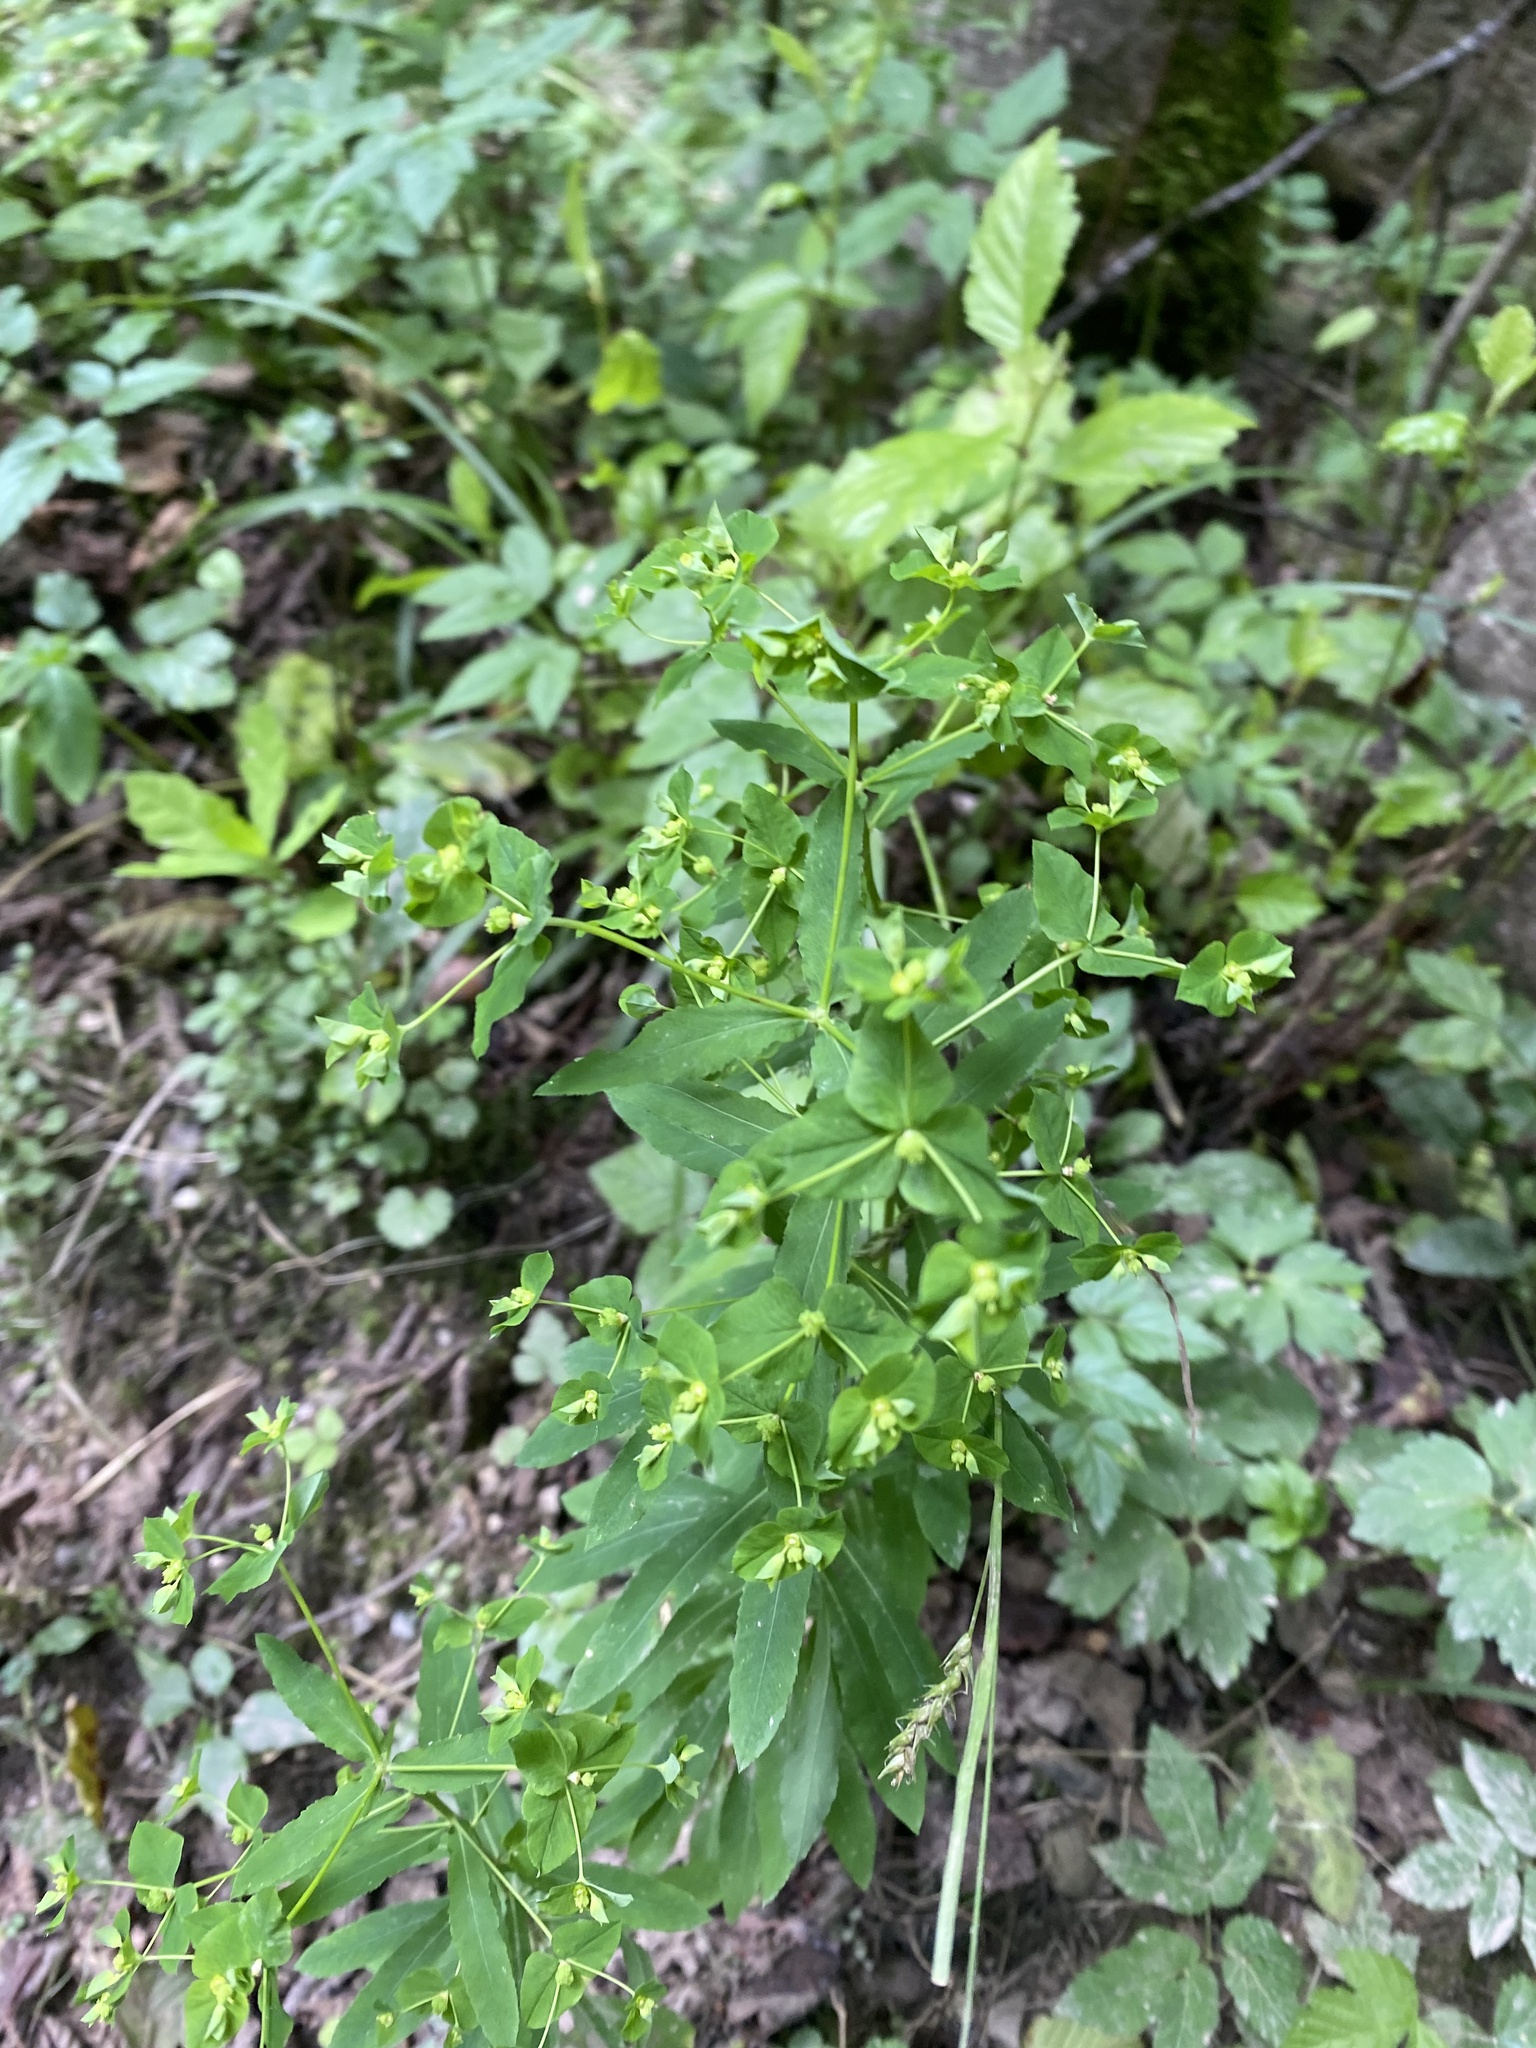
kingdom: Plantae
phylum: Tracheophyta
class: Magnoliopsida
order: Malpighiales
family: Euphorbiaceae
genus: Euphorbia
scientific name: Euphorbia stricta
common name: Upright spurge
